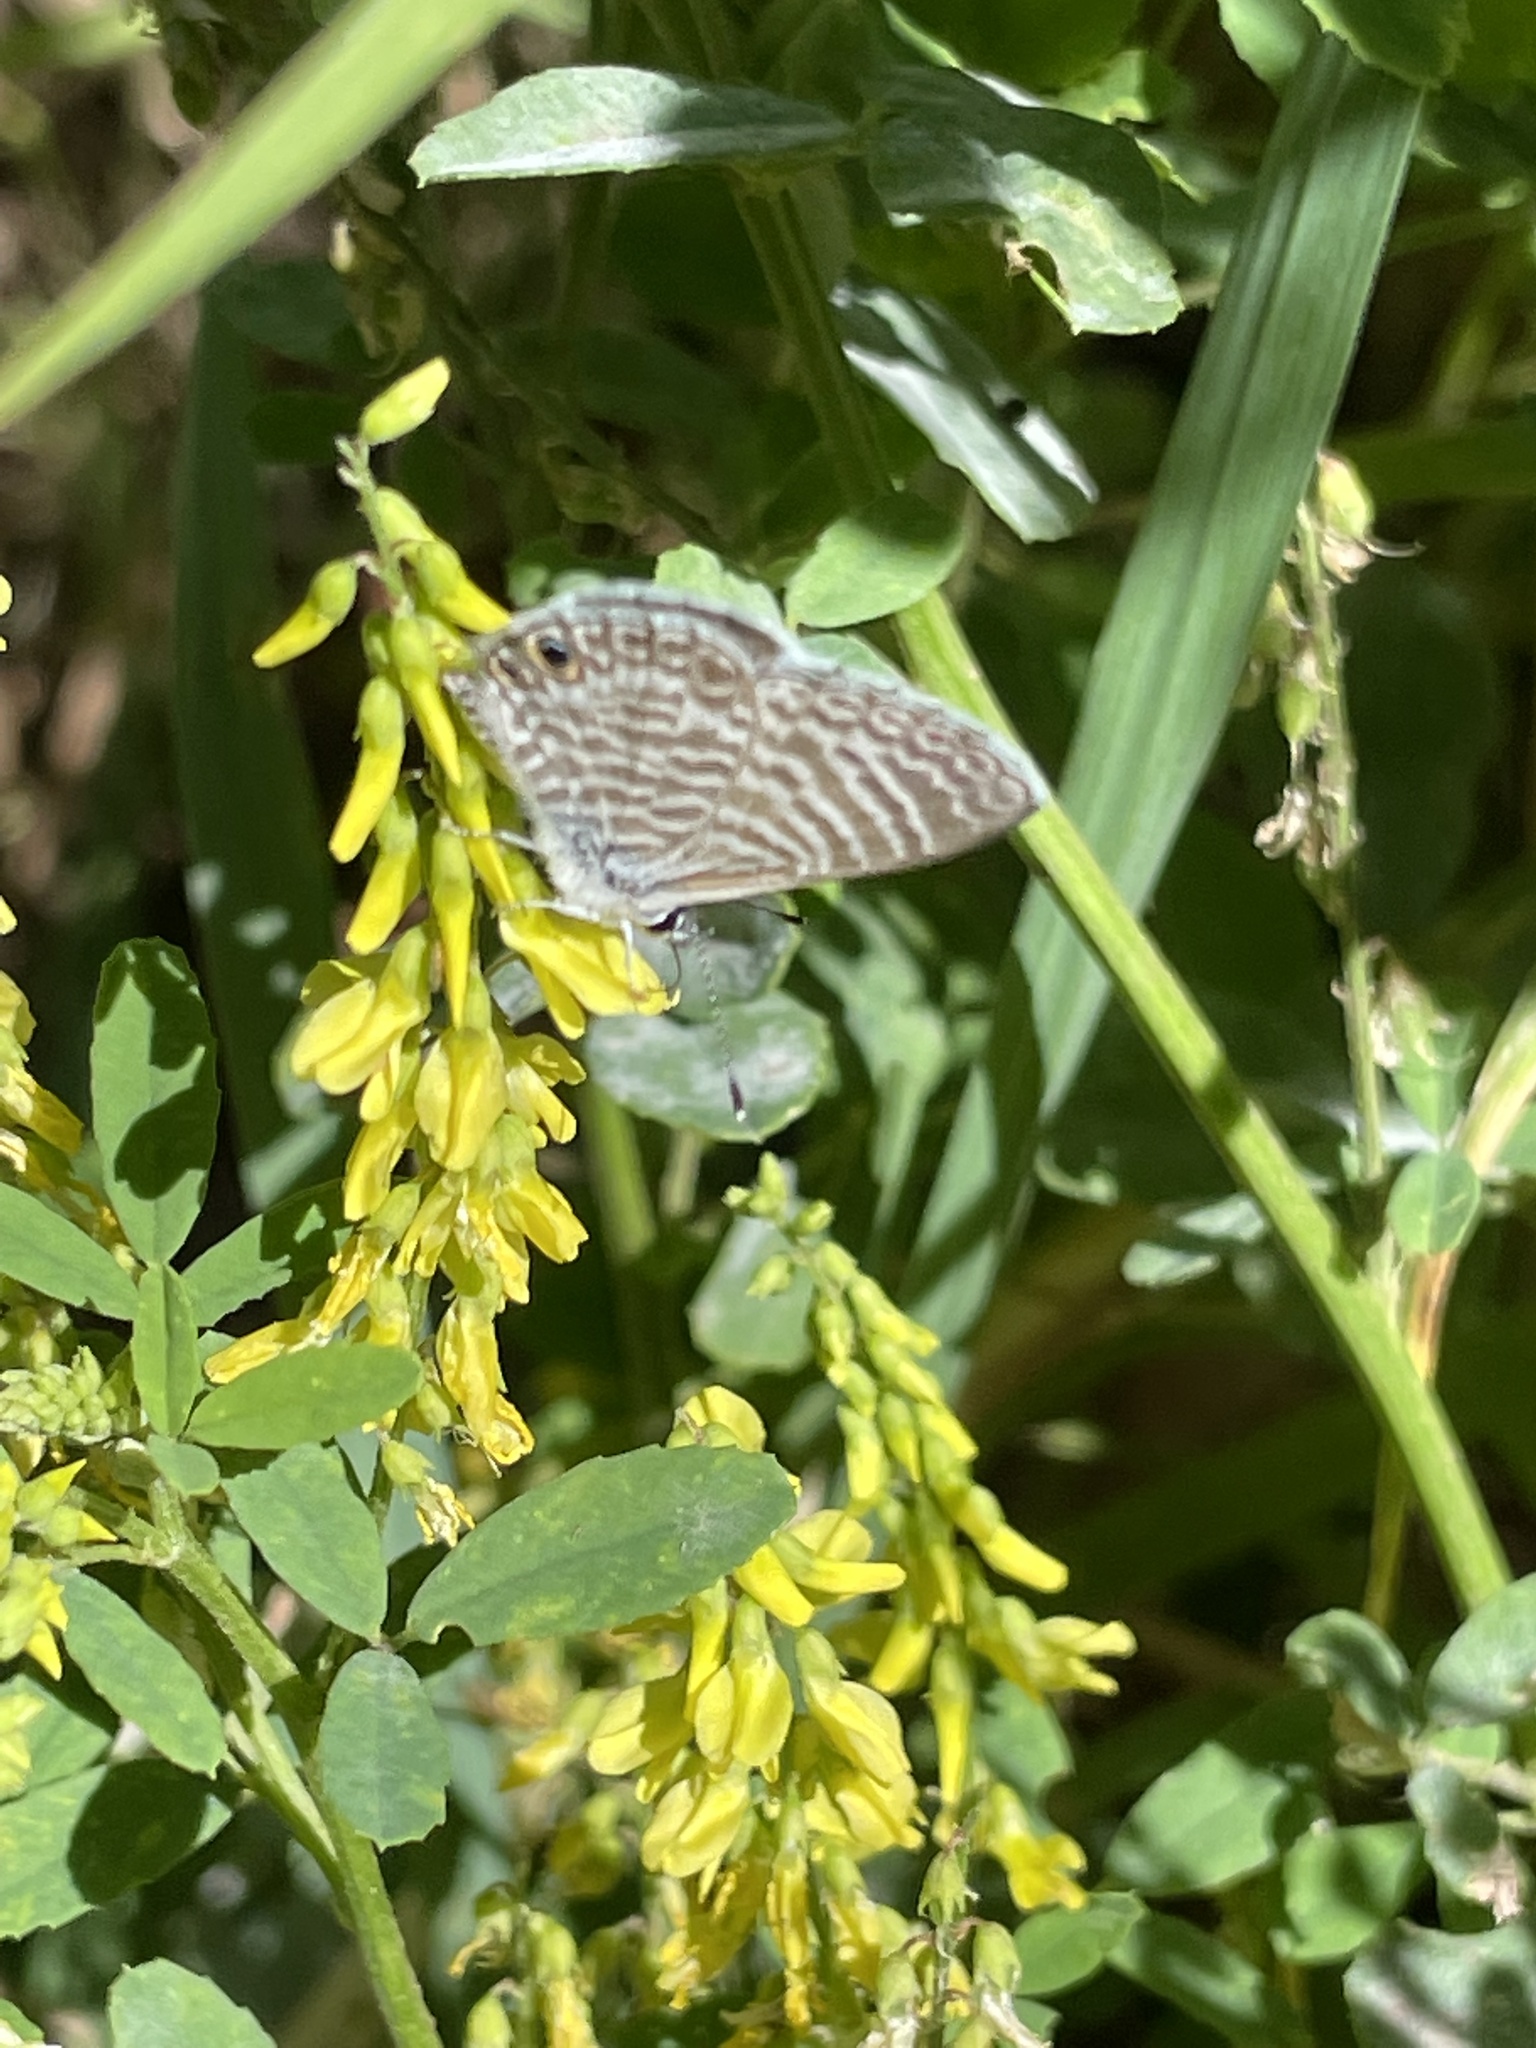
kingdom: Animalia
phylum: Arthropoda
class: Insecta
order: Lepidoptera
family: Lycaenidae
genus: Leptotes
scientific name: Leptotes marina
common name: Marine blue
